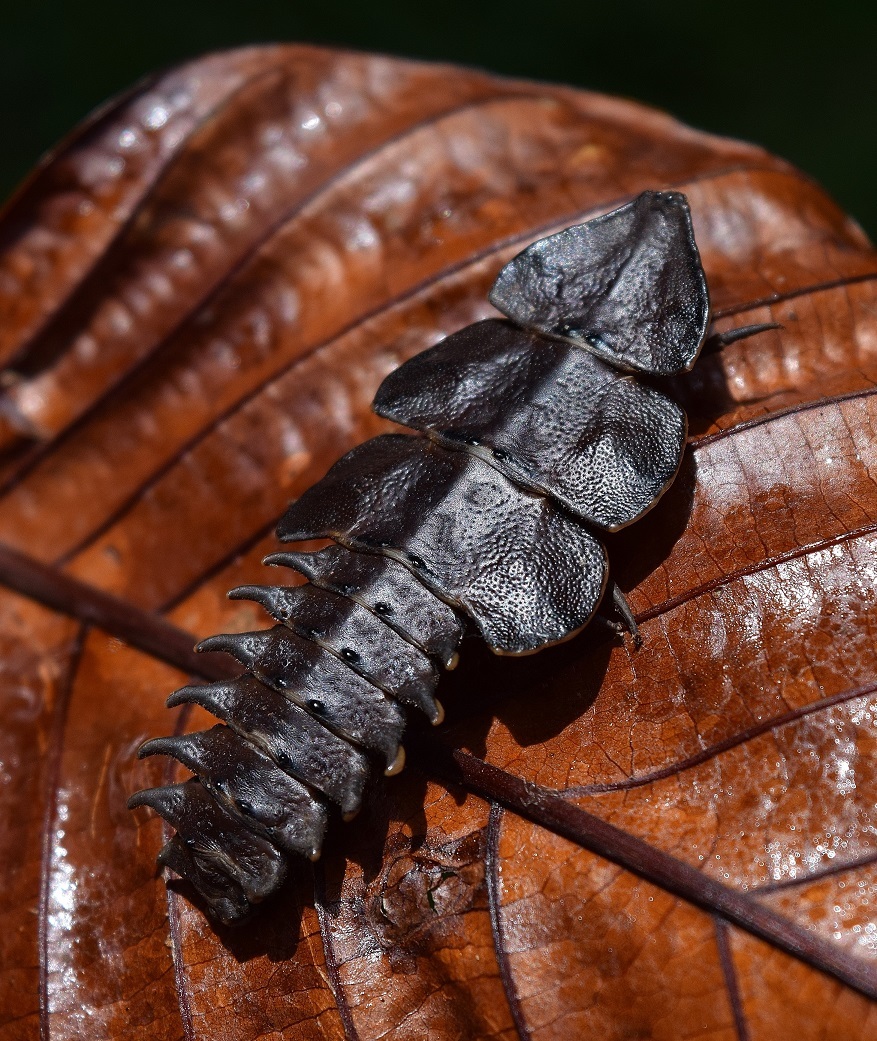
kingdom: Animalia
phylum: Arthropoda
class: Insecta
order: Coleoptera
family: Lycidae
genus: Platerodrilus
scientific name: Platerodrilus paradoxus
